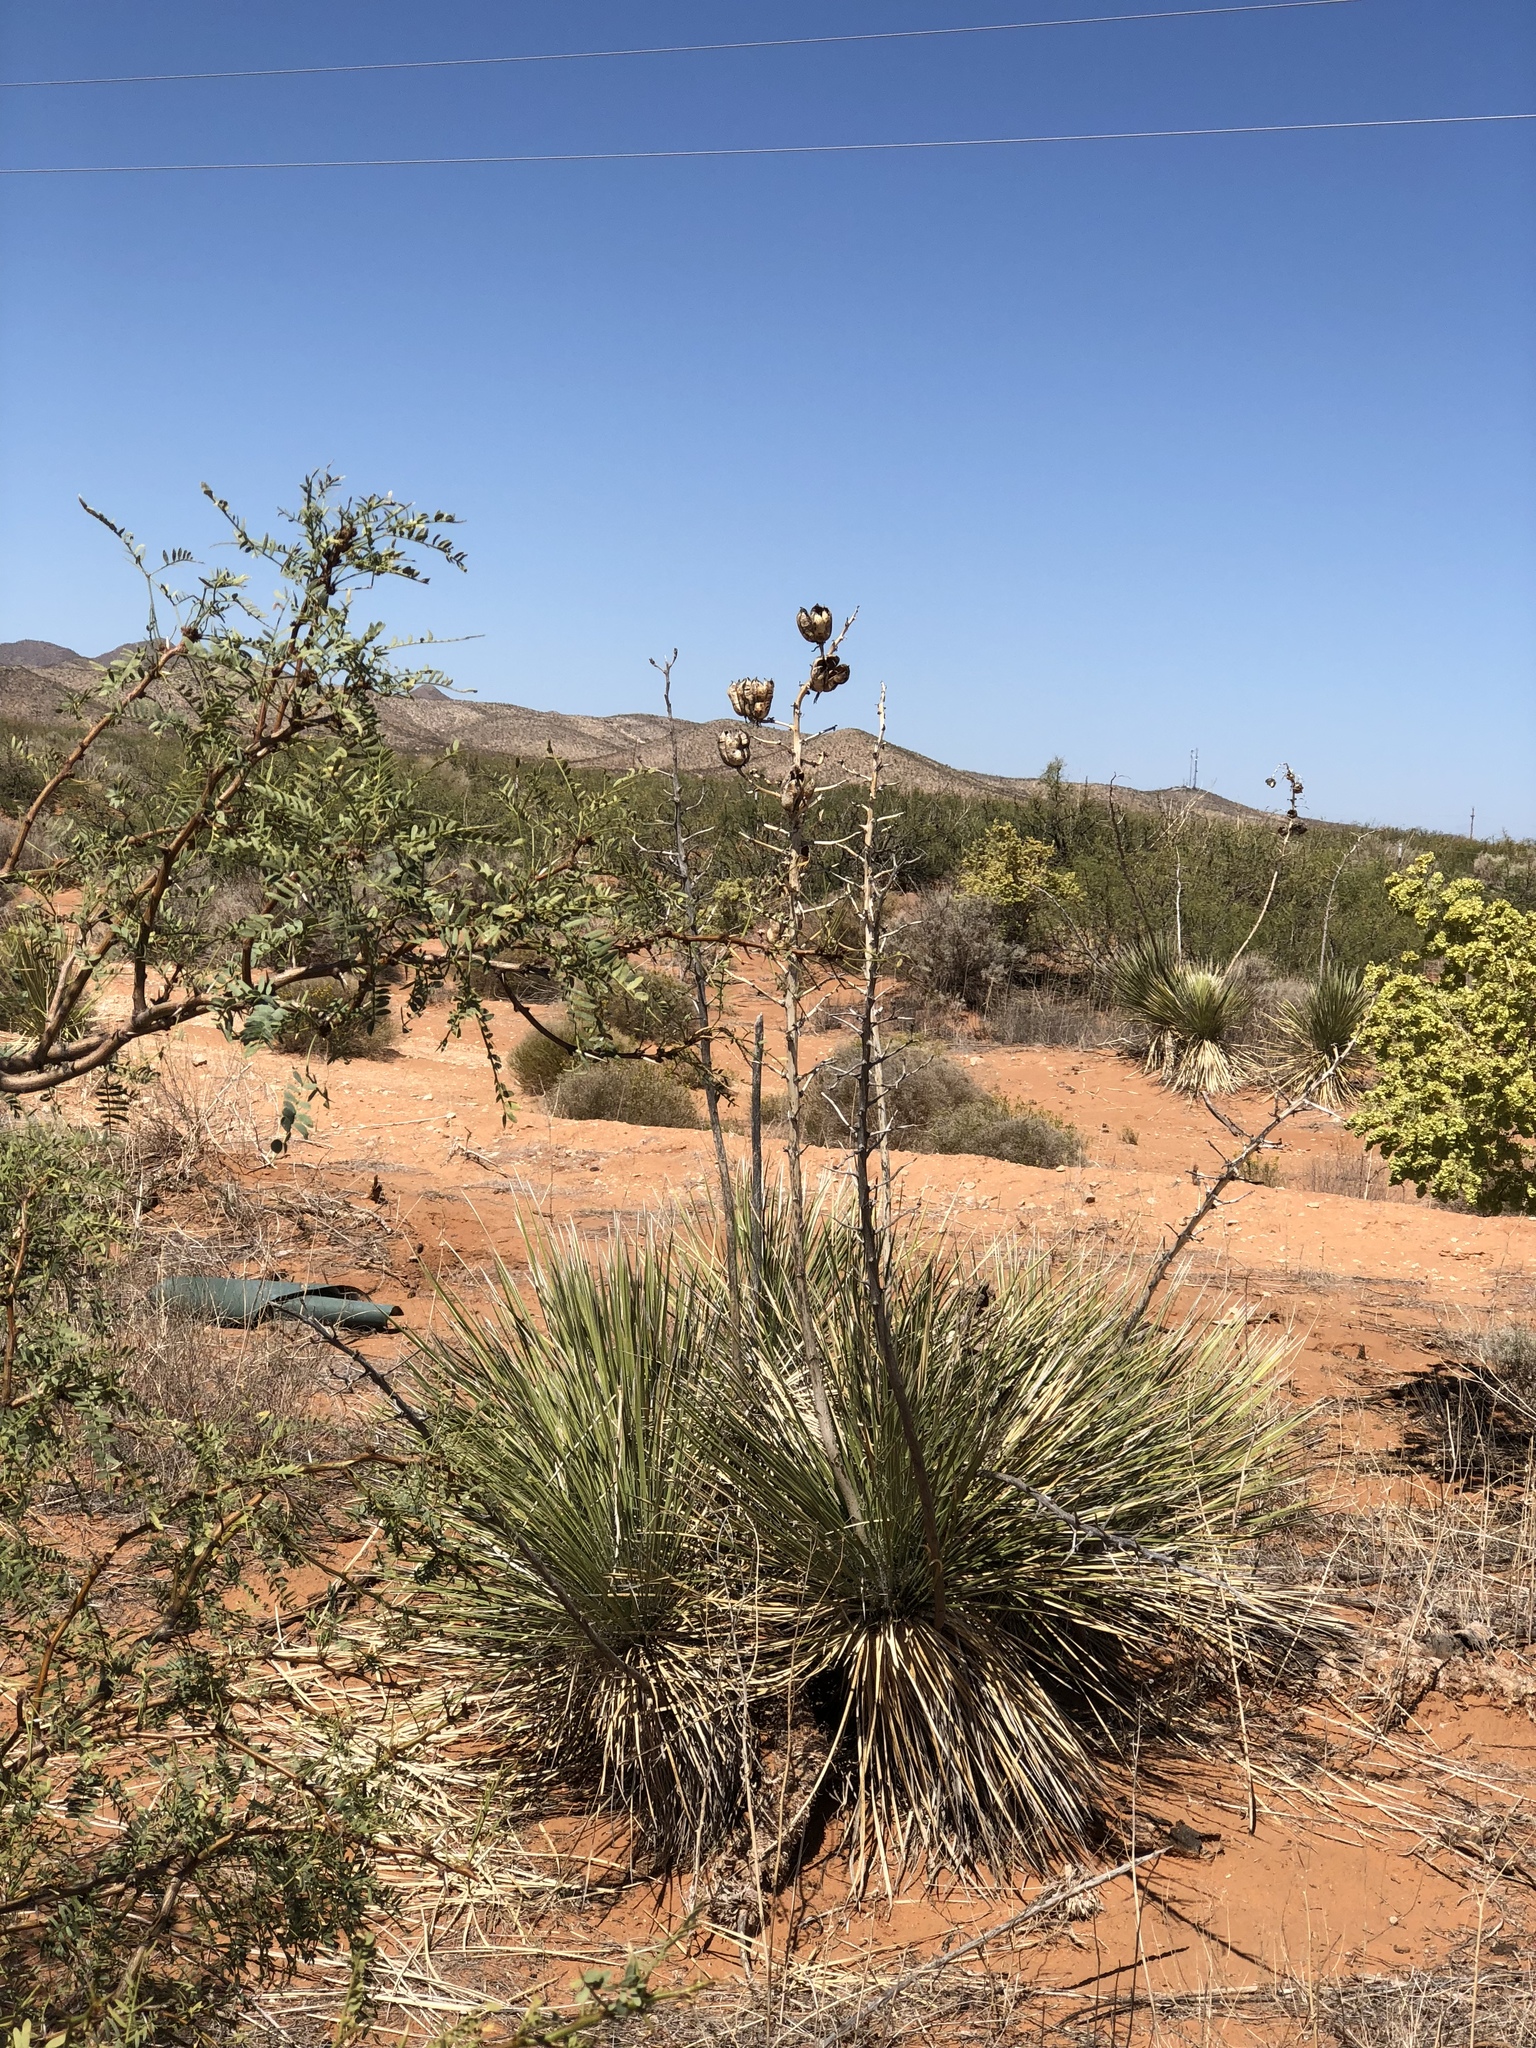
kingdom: Plantae
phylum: Tracheophyta
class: Liliopsida
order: Asparagales
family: Asparagaceae
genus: Yucca
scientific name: Yucca elata
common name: Palmella
